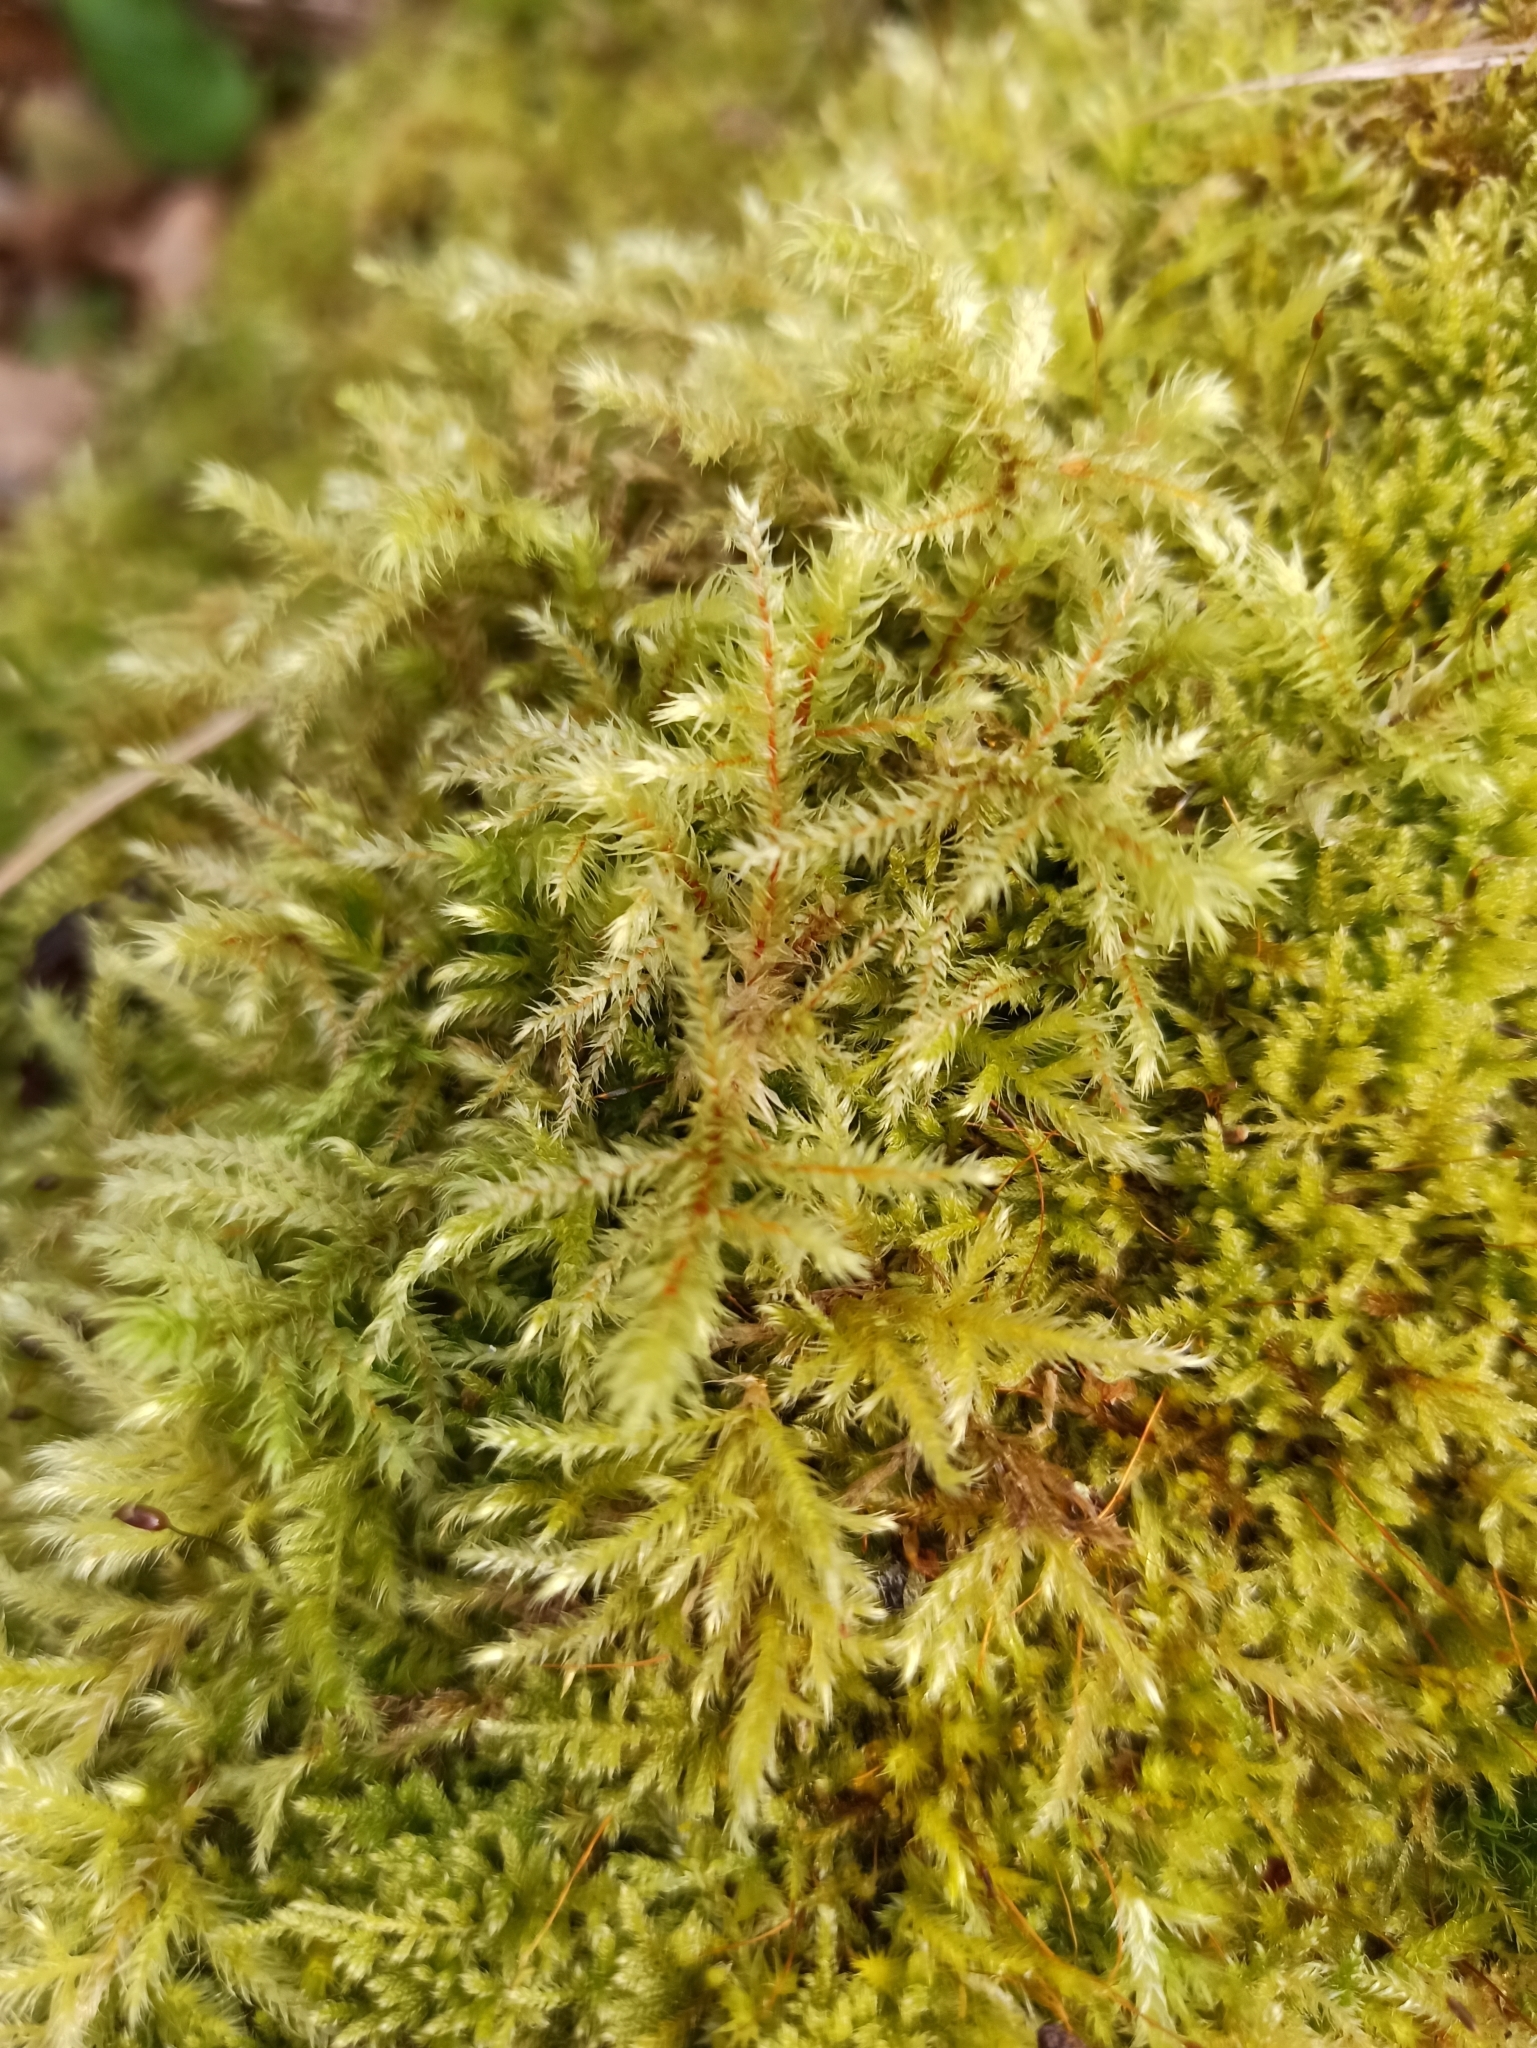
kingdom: Plantae
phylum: Bryophyta
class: Bryopsida
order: Hypnales
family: Hylocomiaceae
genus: Hylocomiadelphus
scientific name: Hylocomiadelphus triquetrus
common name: Rough goose neck moss
